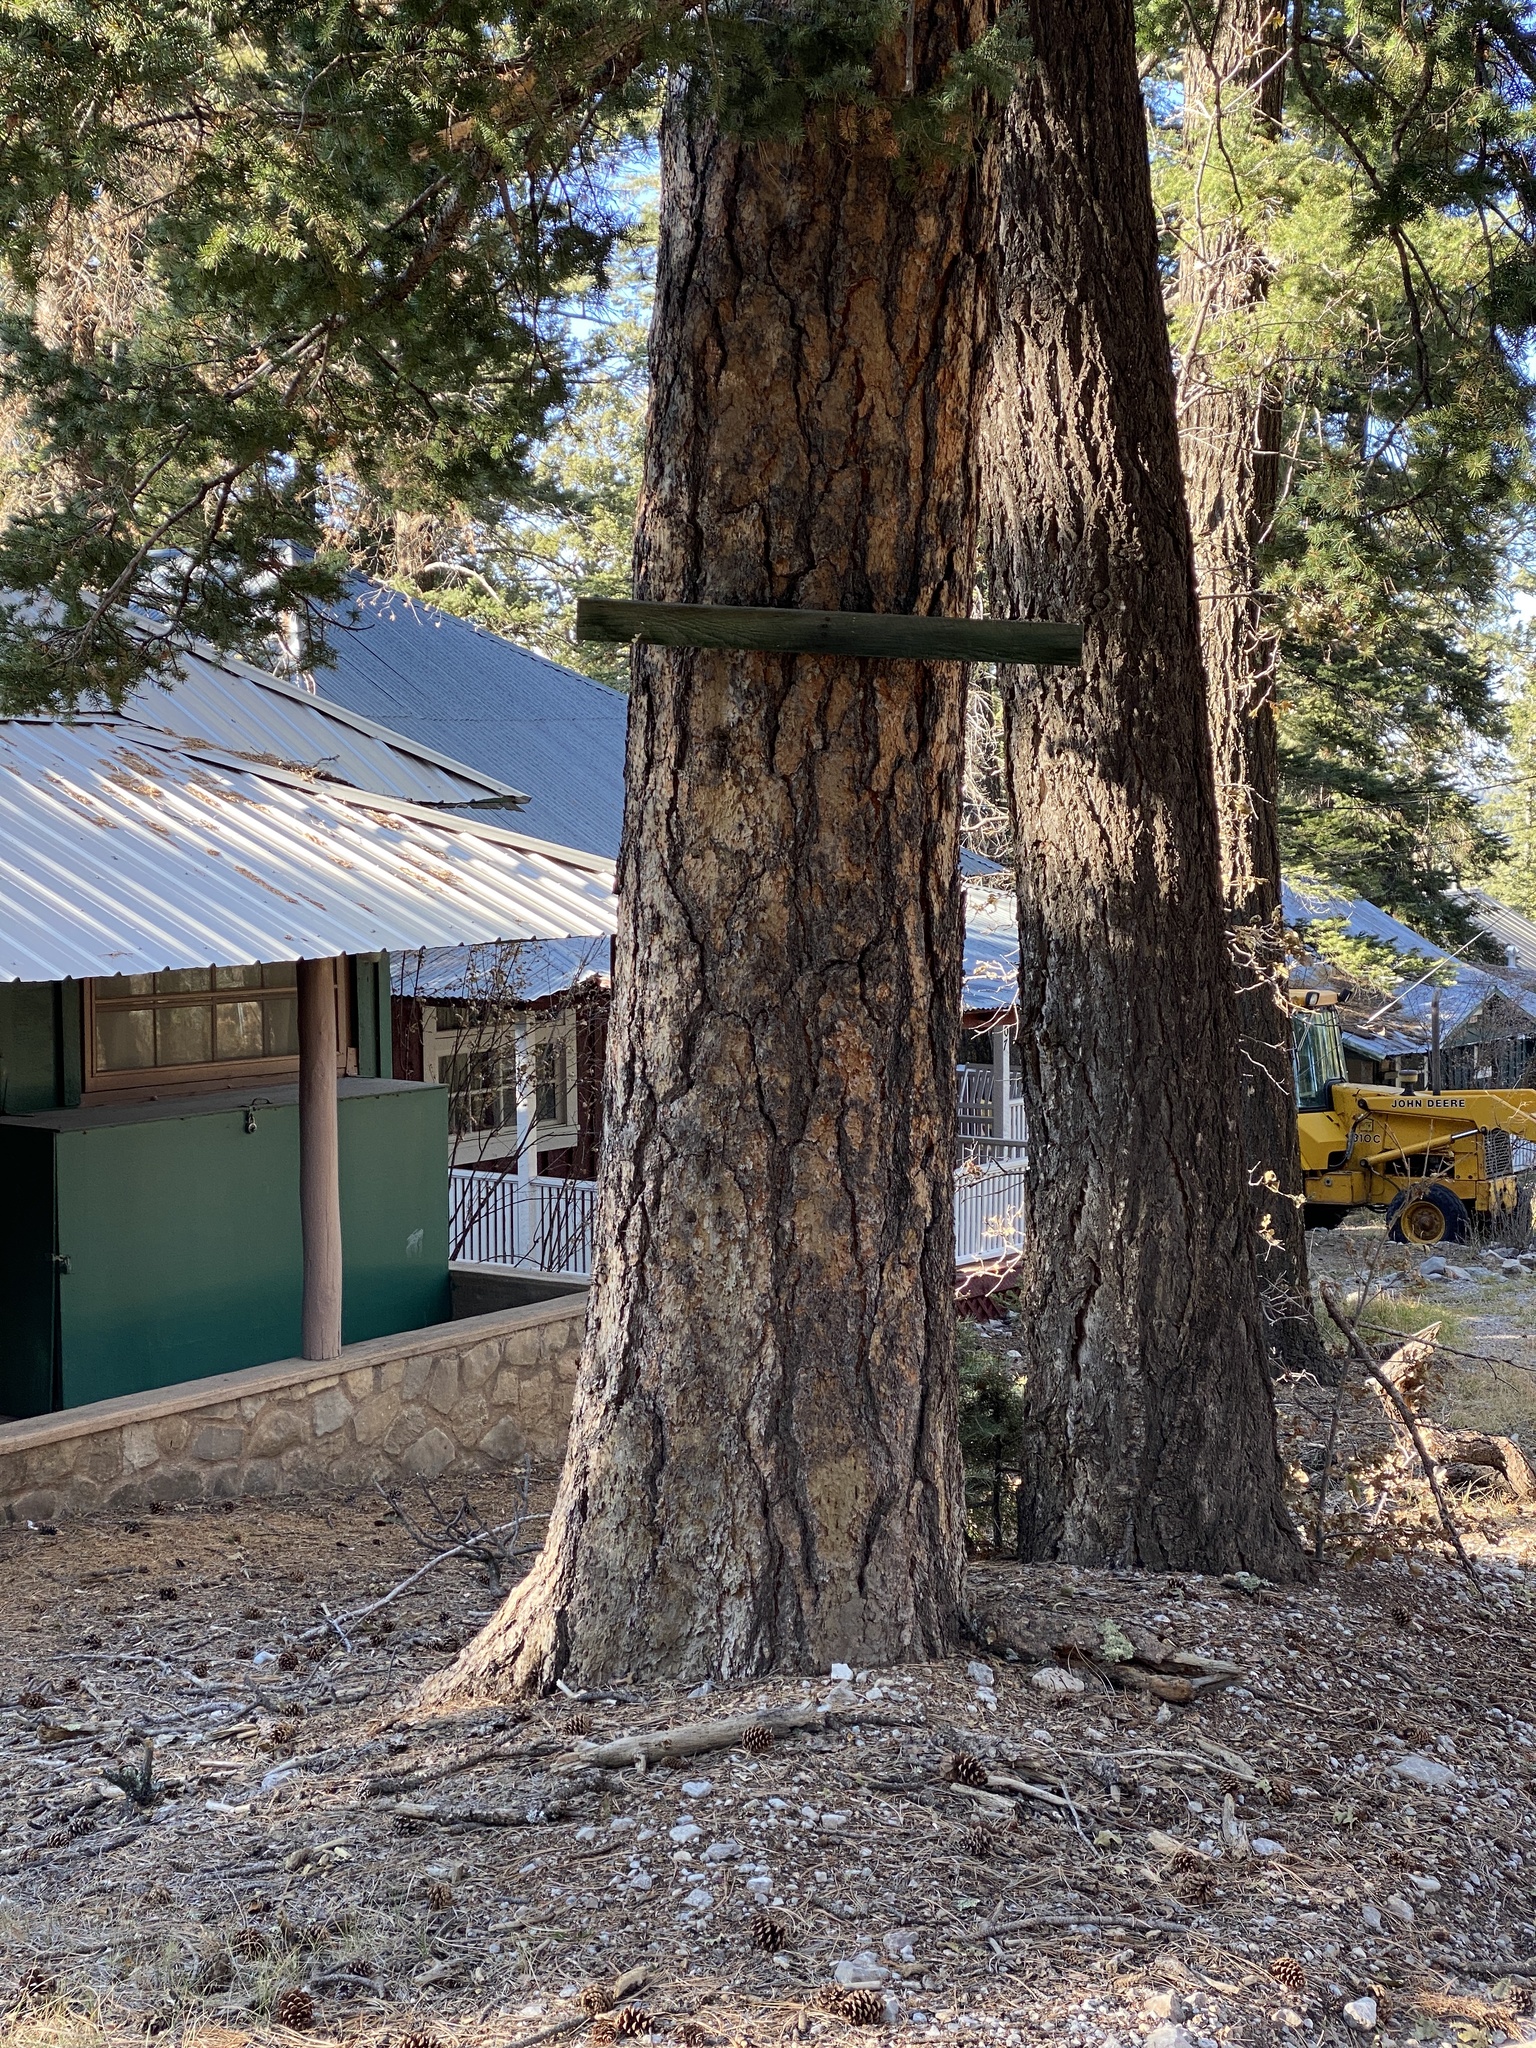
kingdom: Plantae
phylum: Tracheophyta
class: Pinopsida
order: Pinales
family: Pinaceae
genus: Pinus
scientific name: Pinus ponderosa
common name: Western yellow-pine
